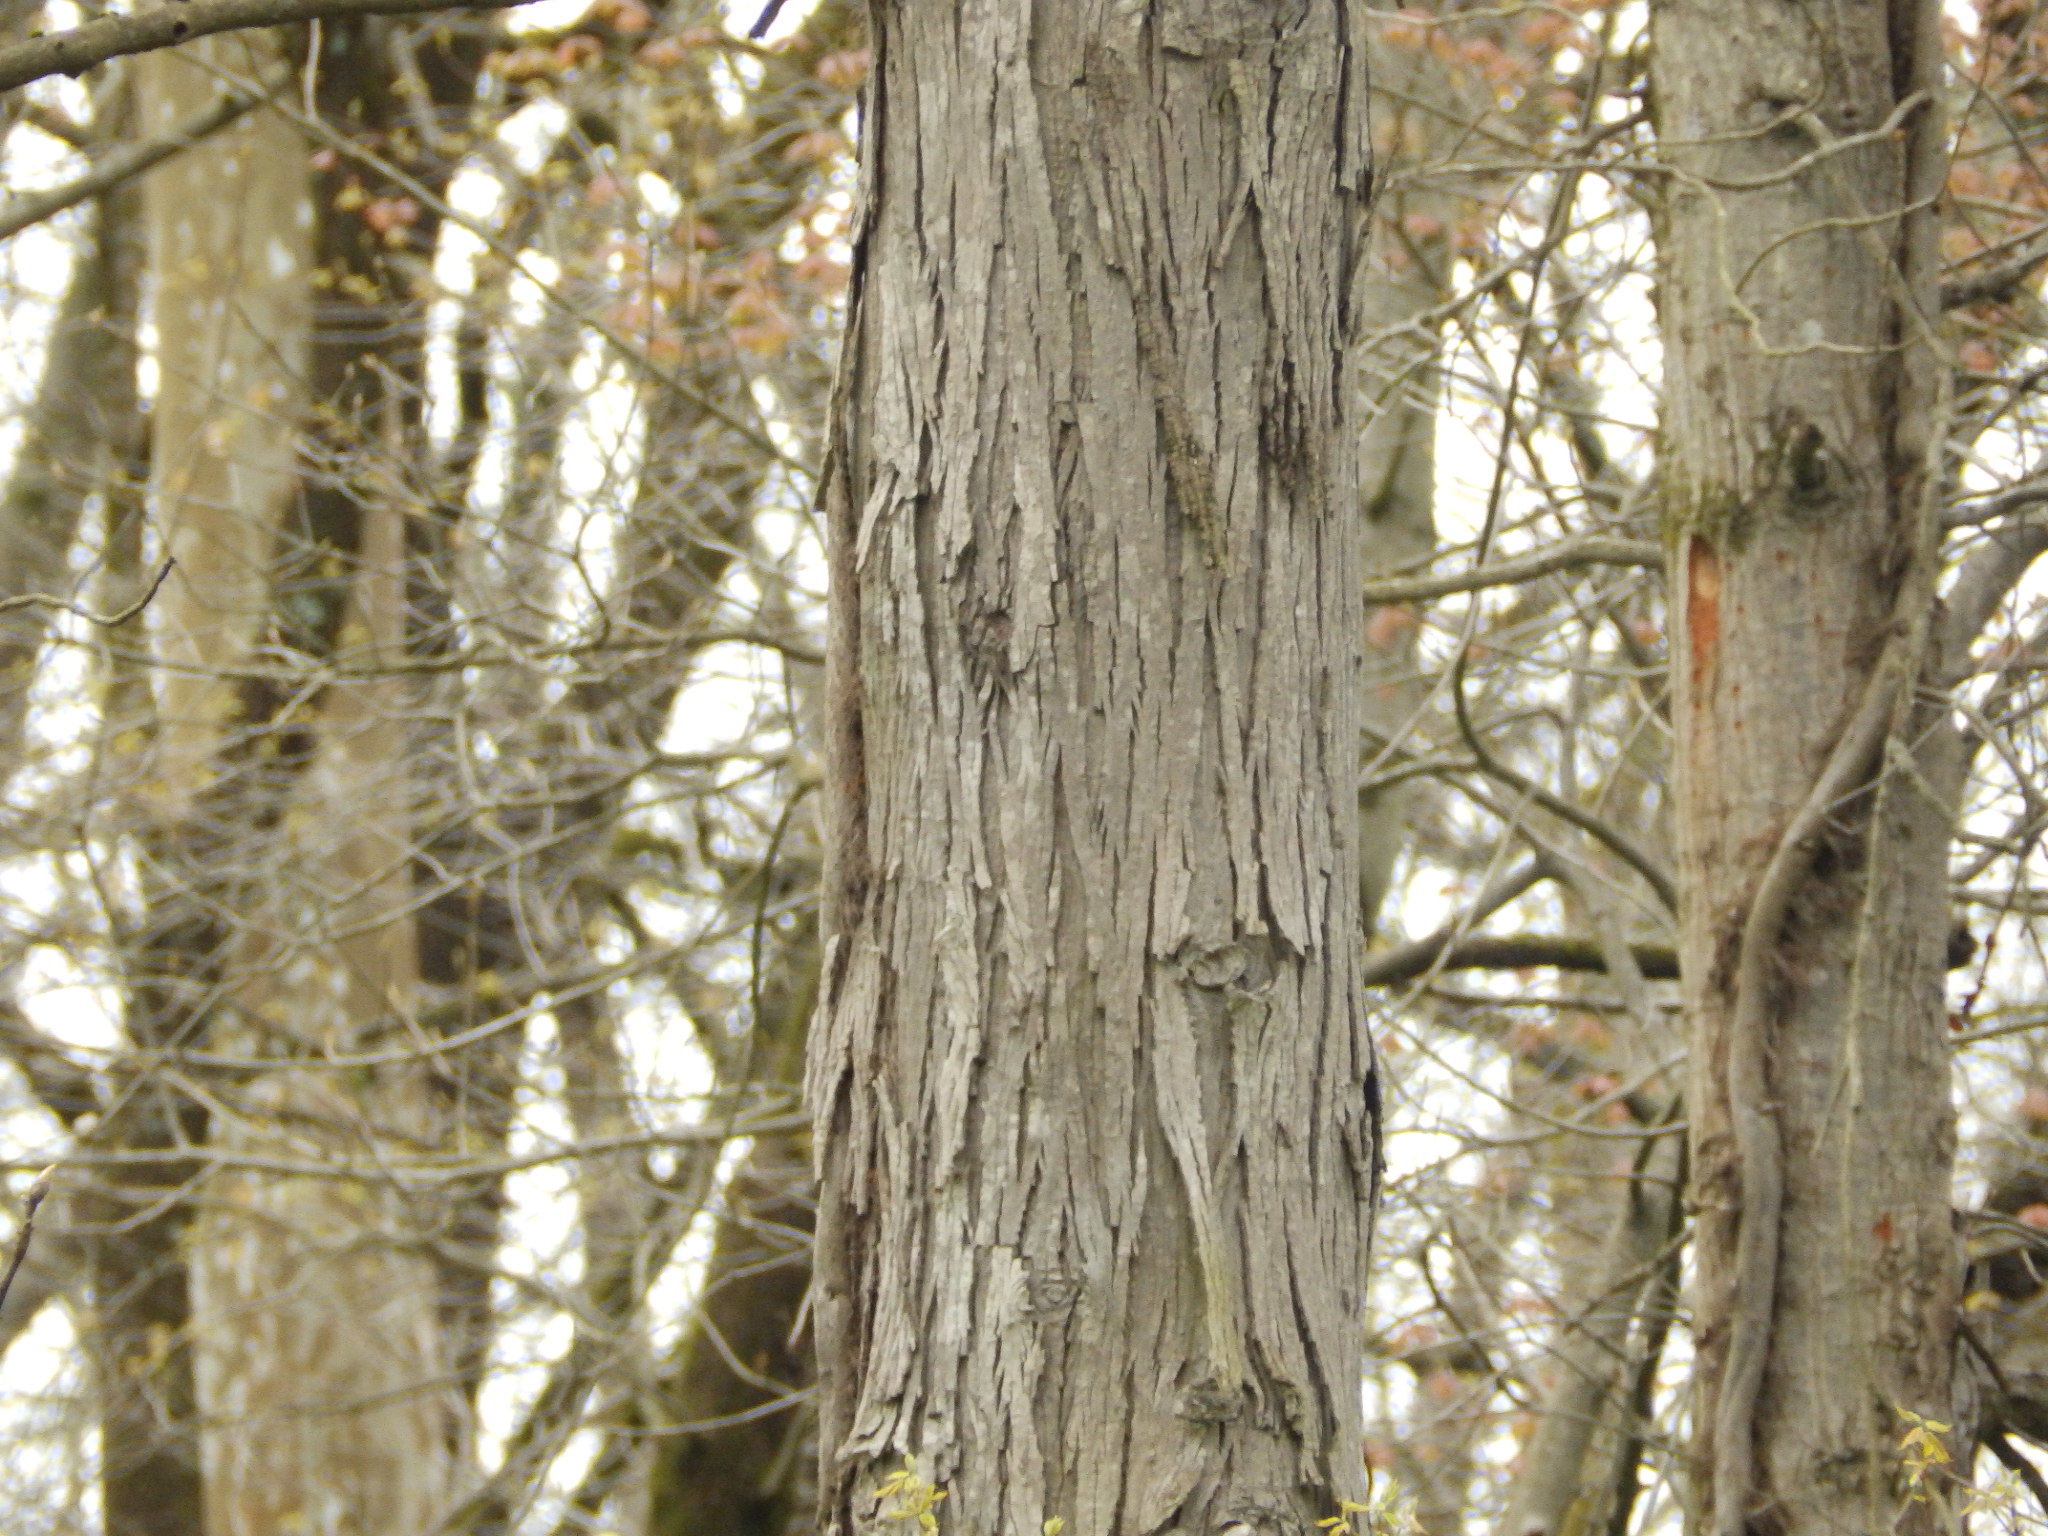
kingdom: Plantae
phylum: Tracheophyta
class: Magnoliopsida
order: Fagales
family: Juglandaceae
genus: Carya
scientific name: Carya ovata
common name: Shagbark hickory
